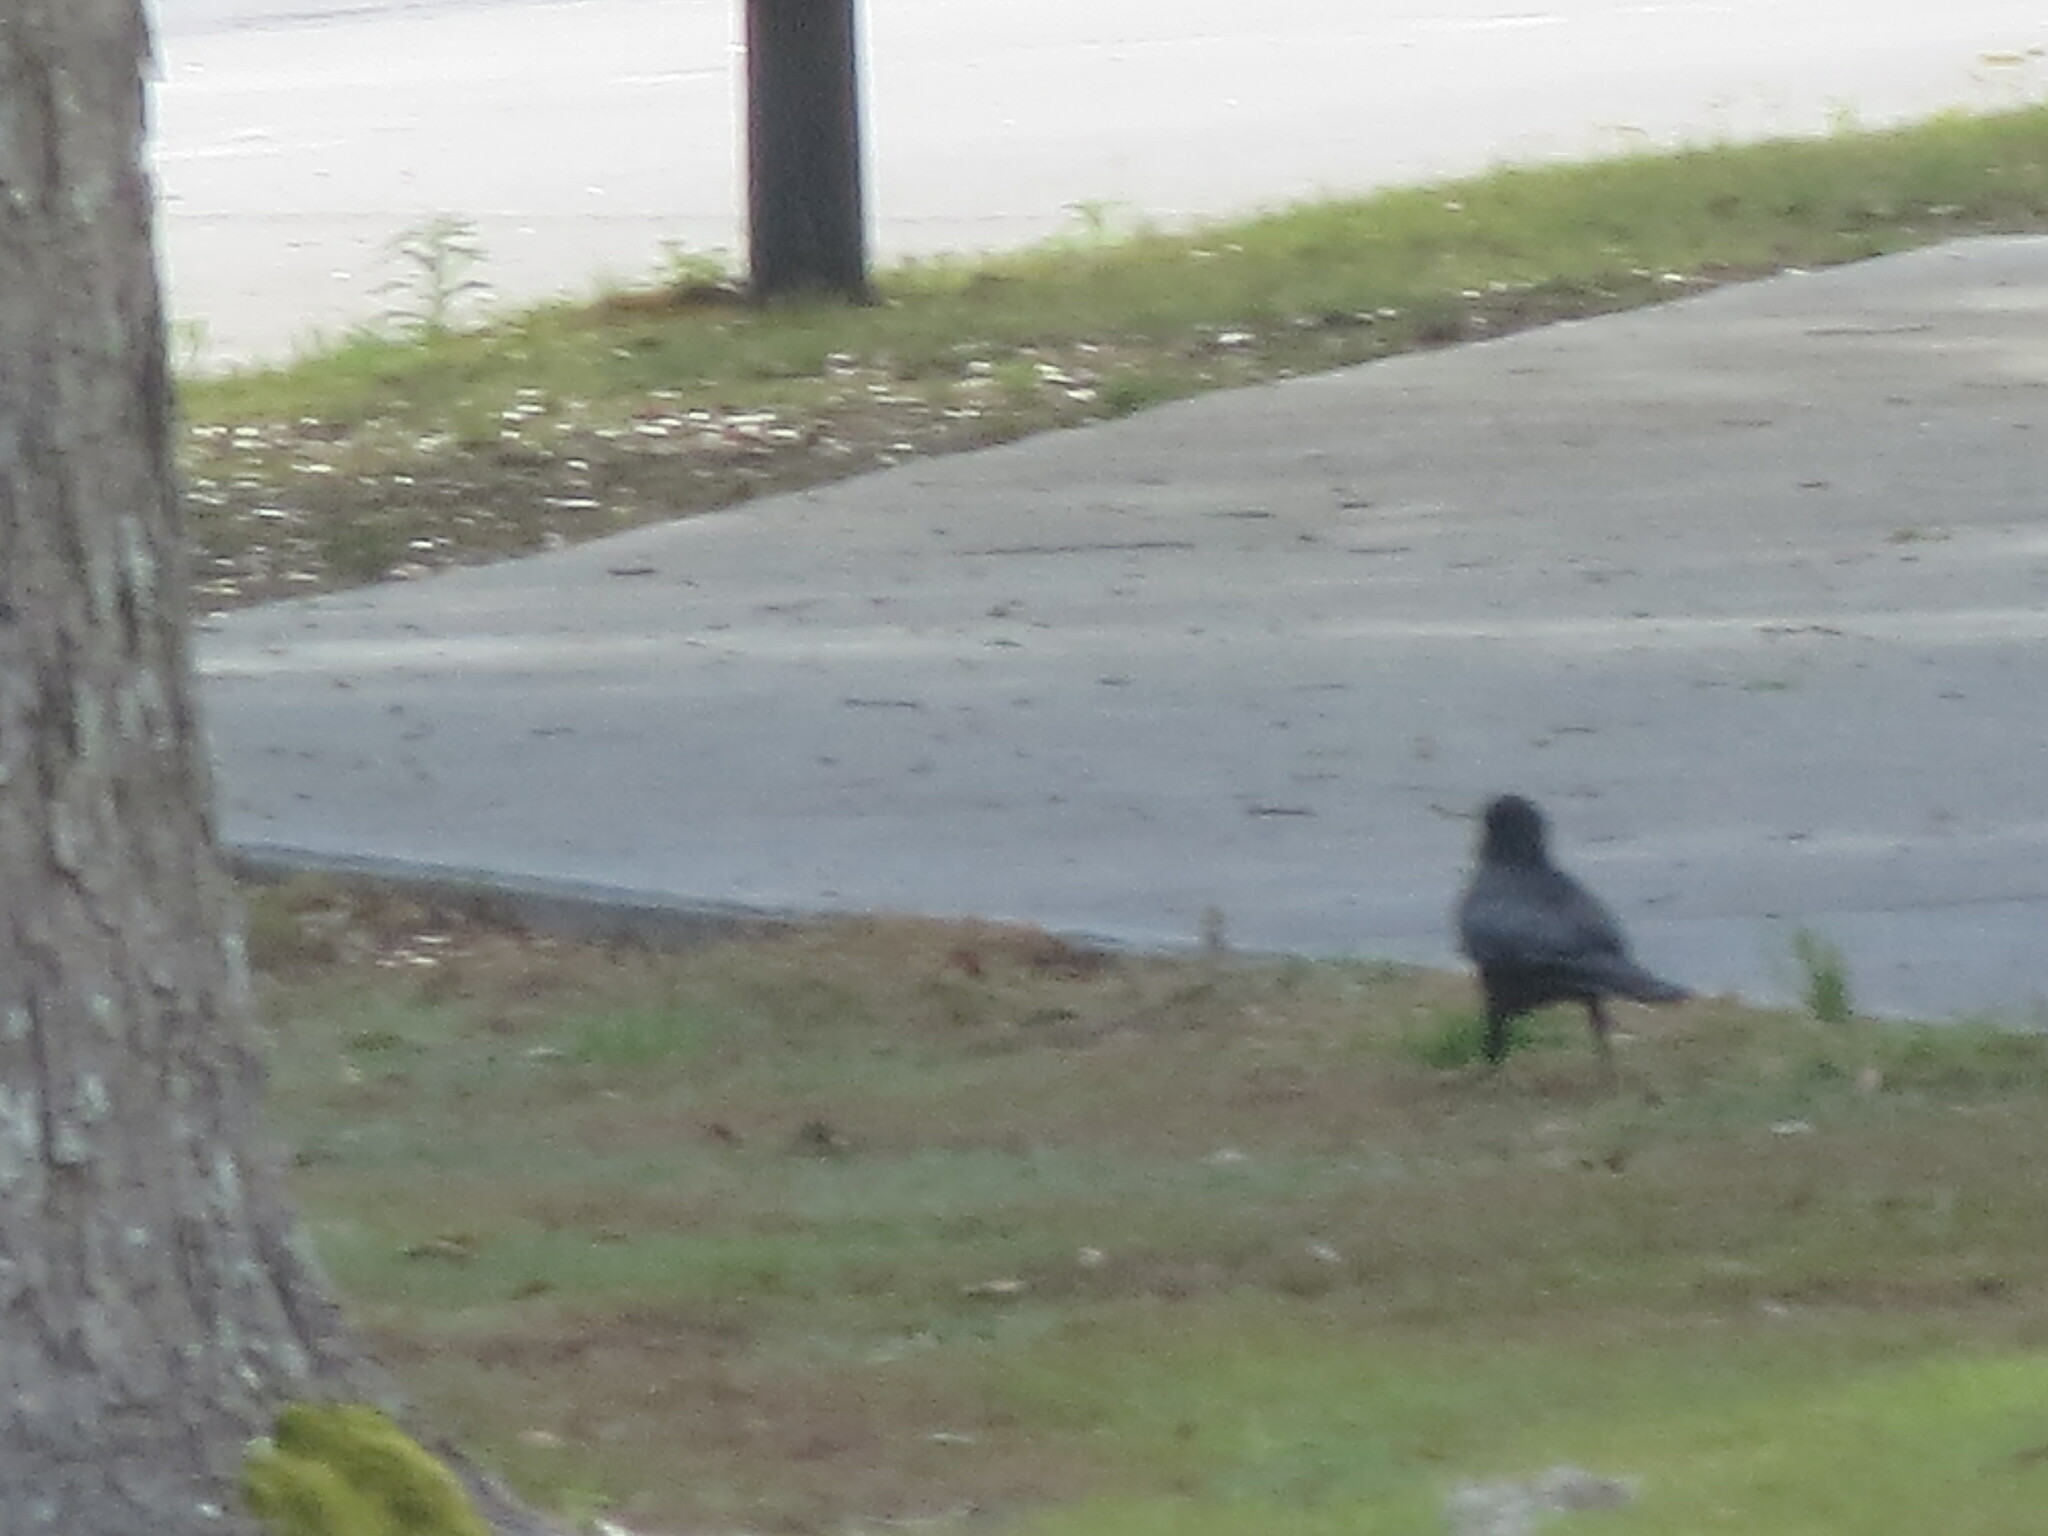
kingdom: Animalia
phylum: Chordata
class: Aves
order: Passeriformes
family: Corvidae
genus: Corvus
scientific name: Corvus
